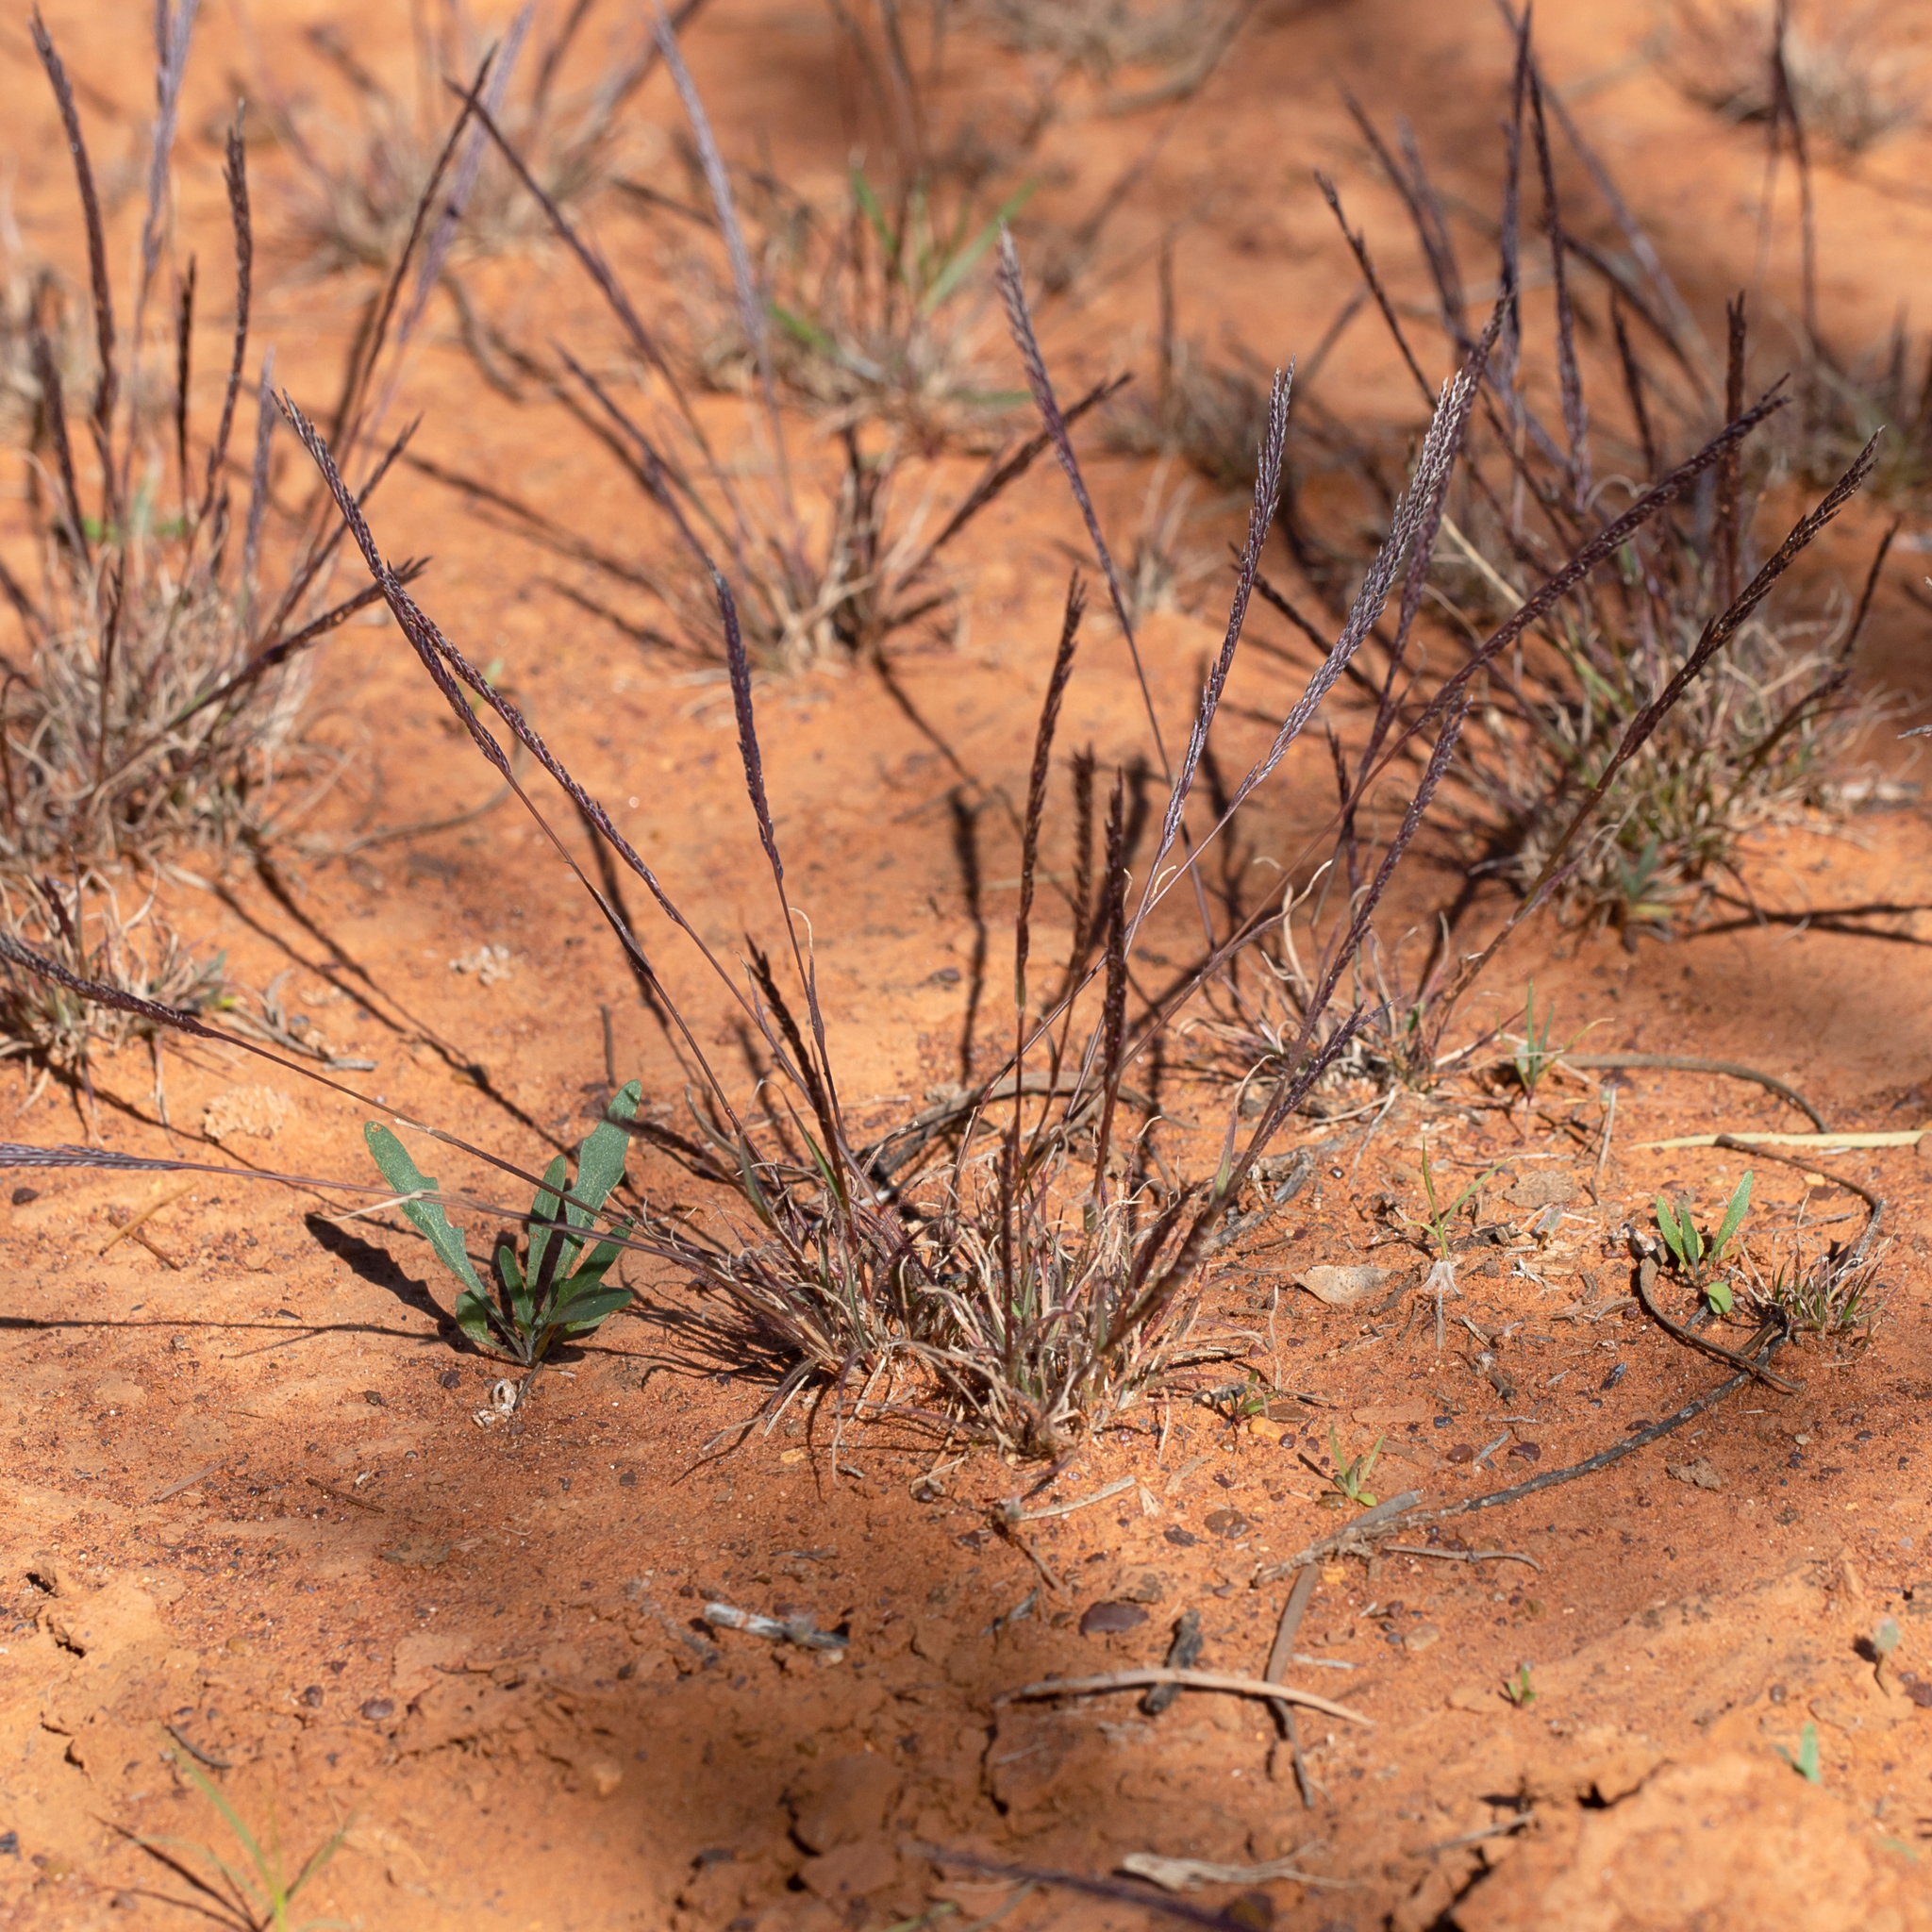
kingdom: Plantae
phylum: Tracheophyta
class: Liliopsida
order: Poales
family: Poaceae
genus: Tripogonella
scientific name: Tripogonella loliiformis
